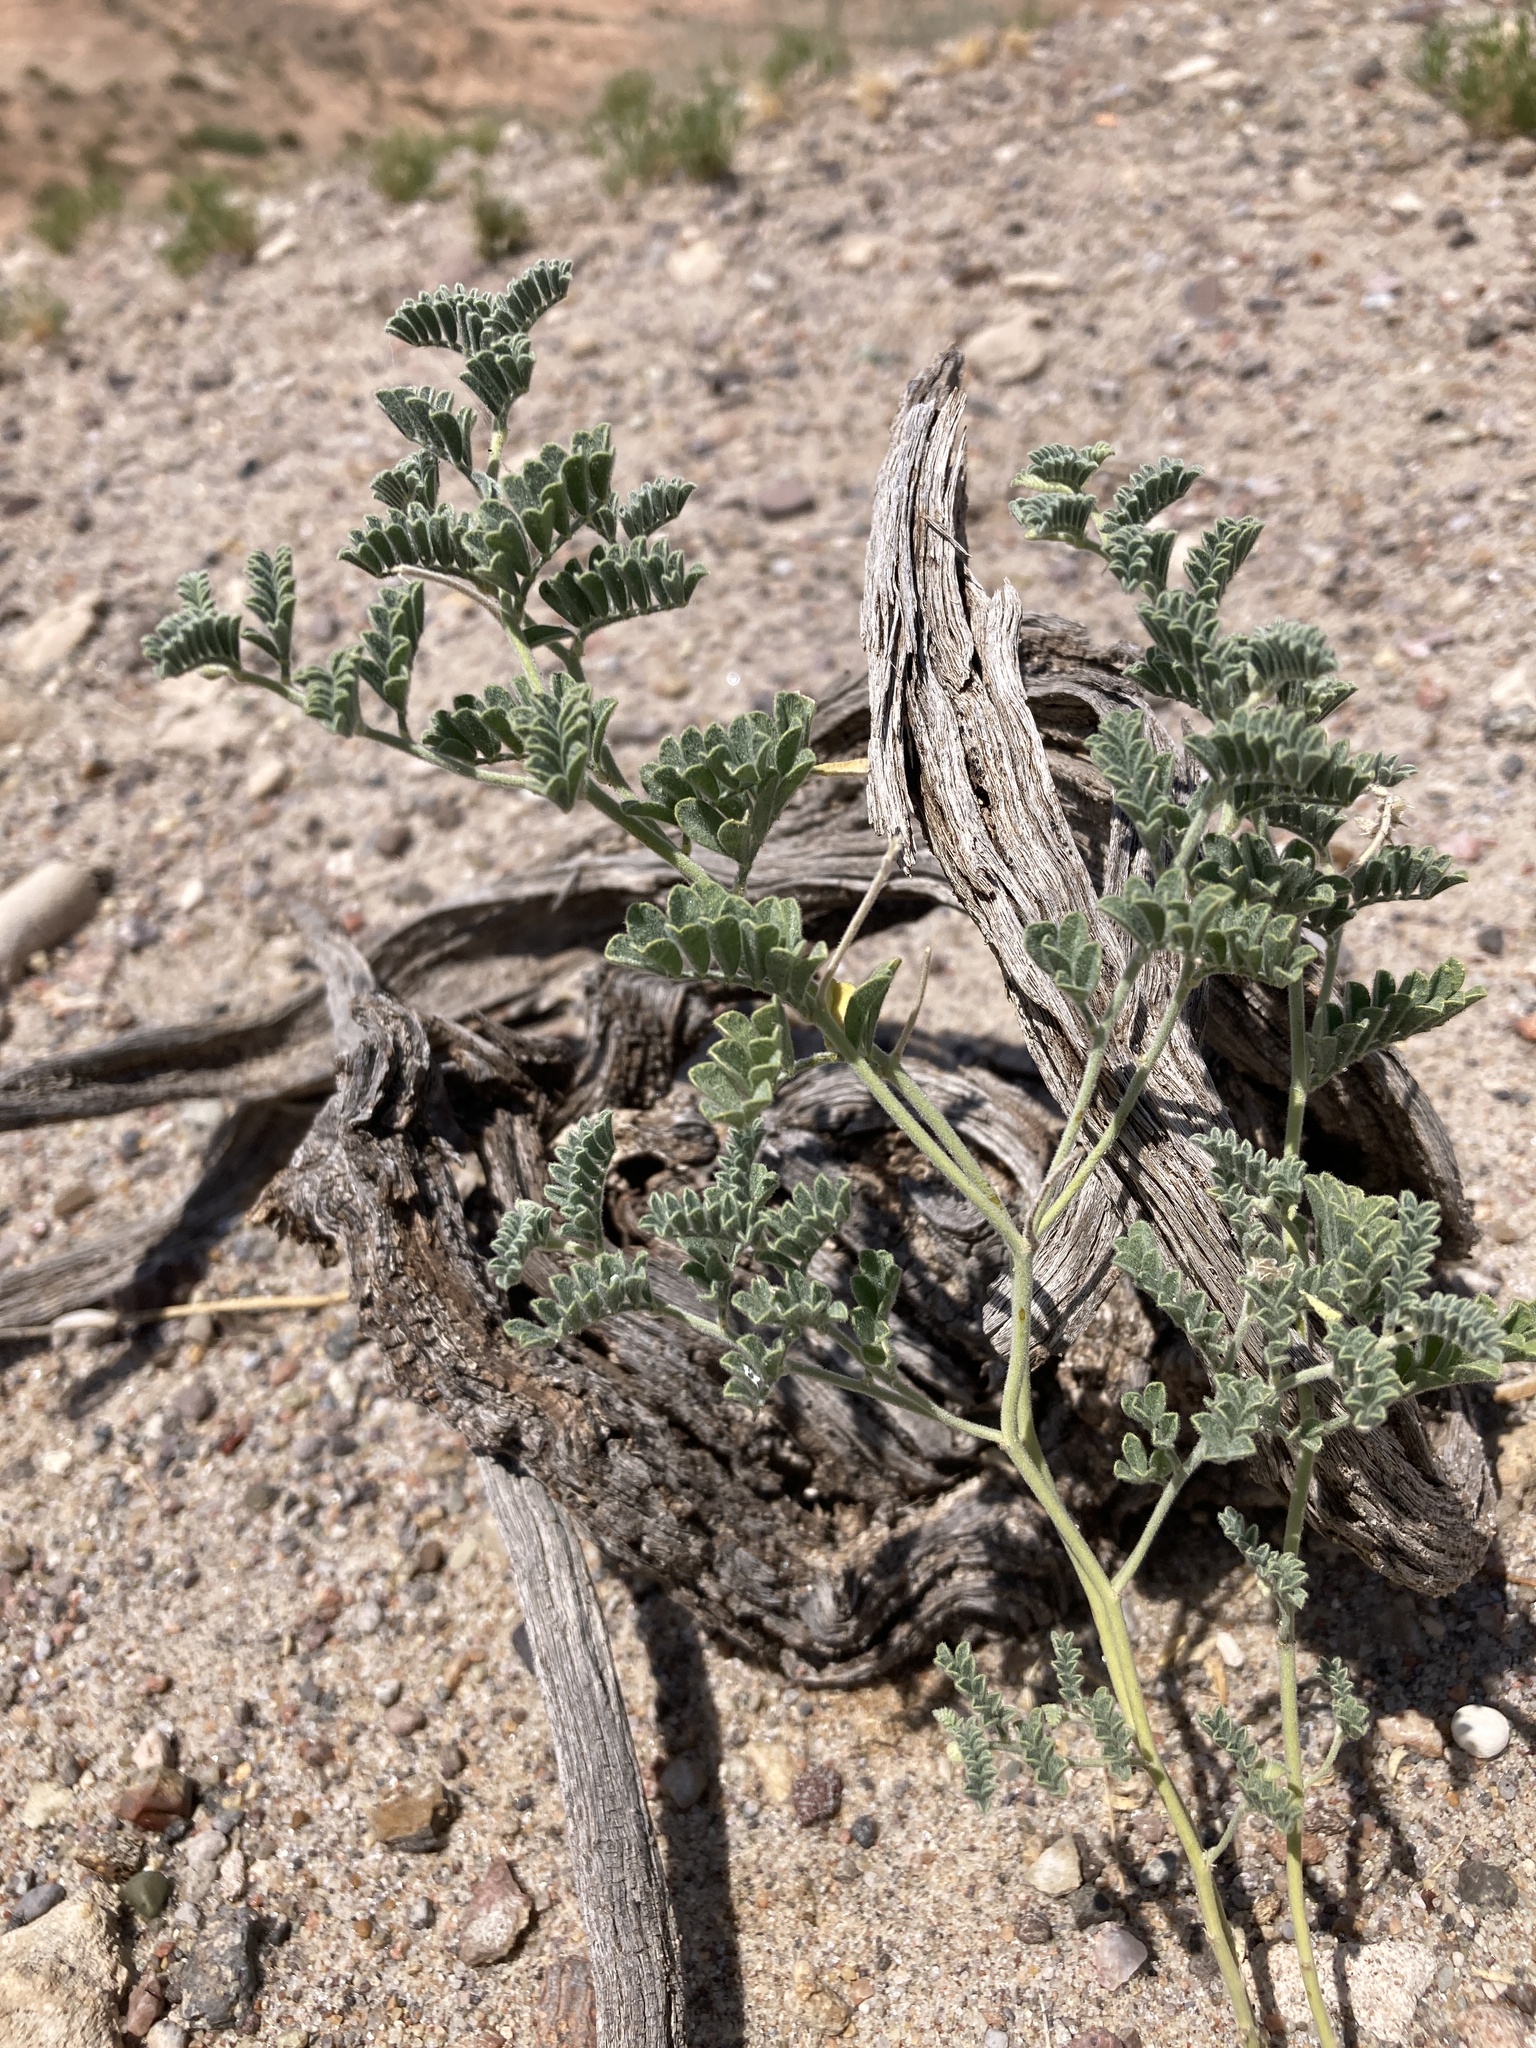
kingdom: Plantae
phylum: Tracheophyta
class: Magnoliopsida
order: Fabales
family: Fabaceae
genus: Dalea
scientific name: Dalea lanata
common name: Woolly dalea
